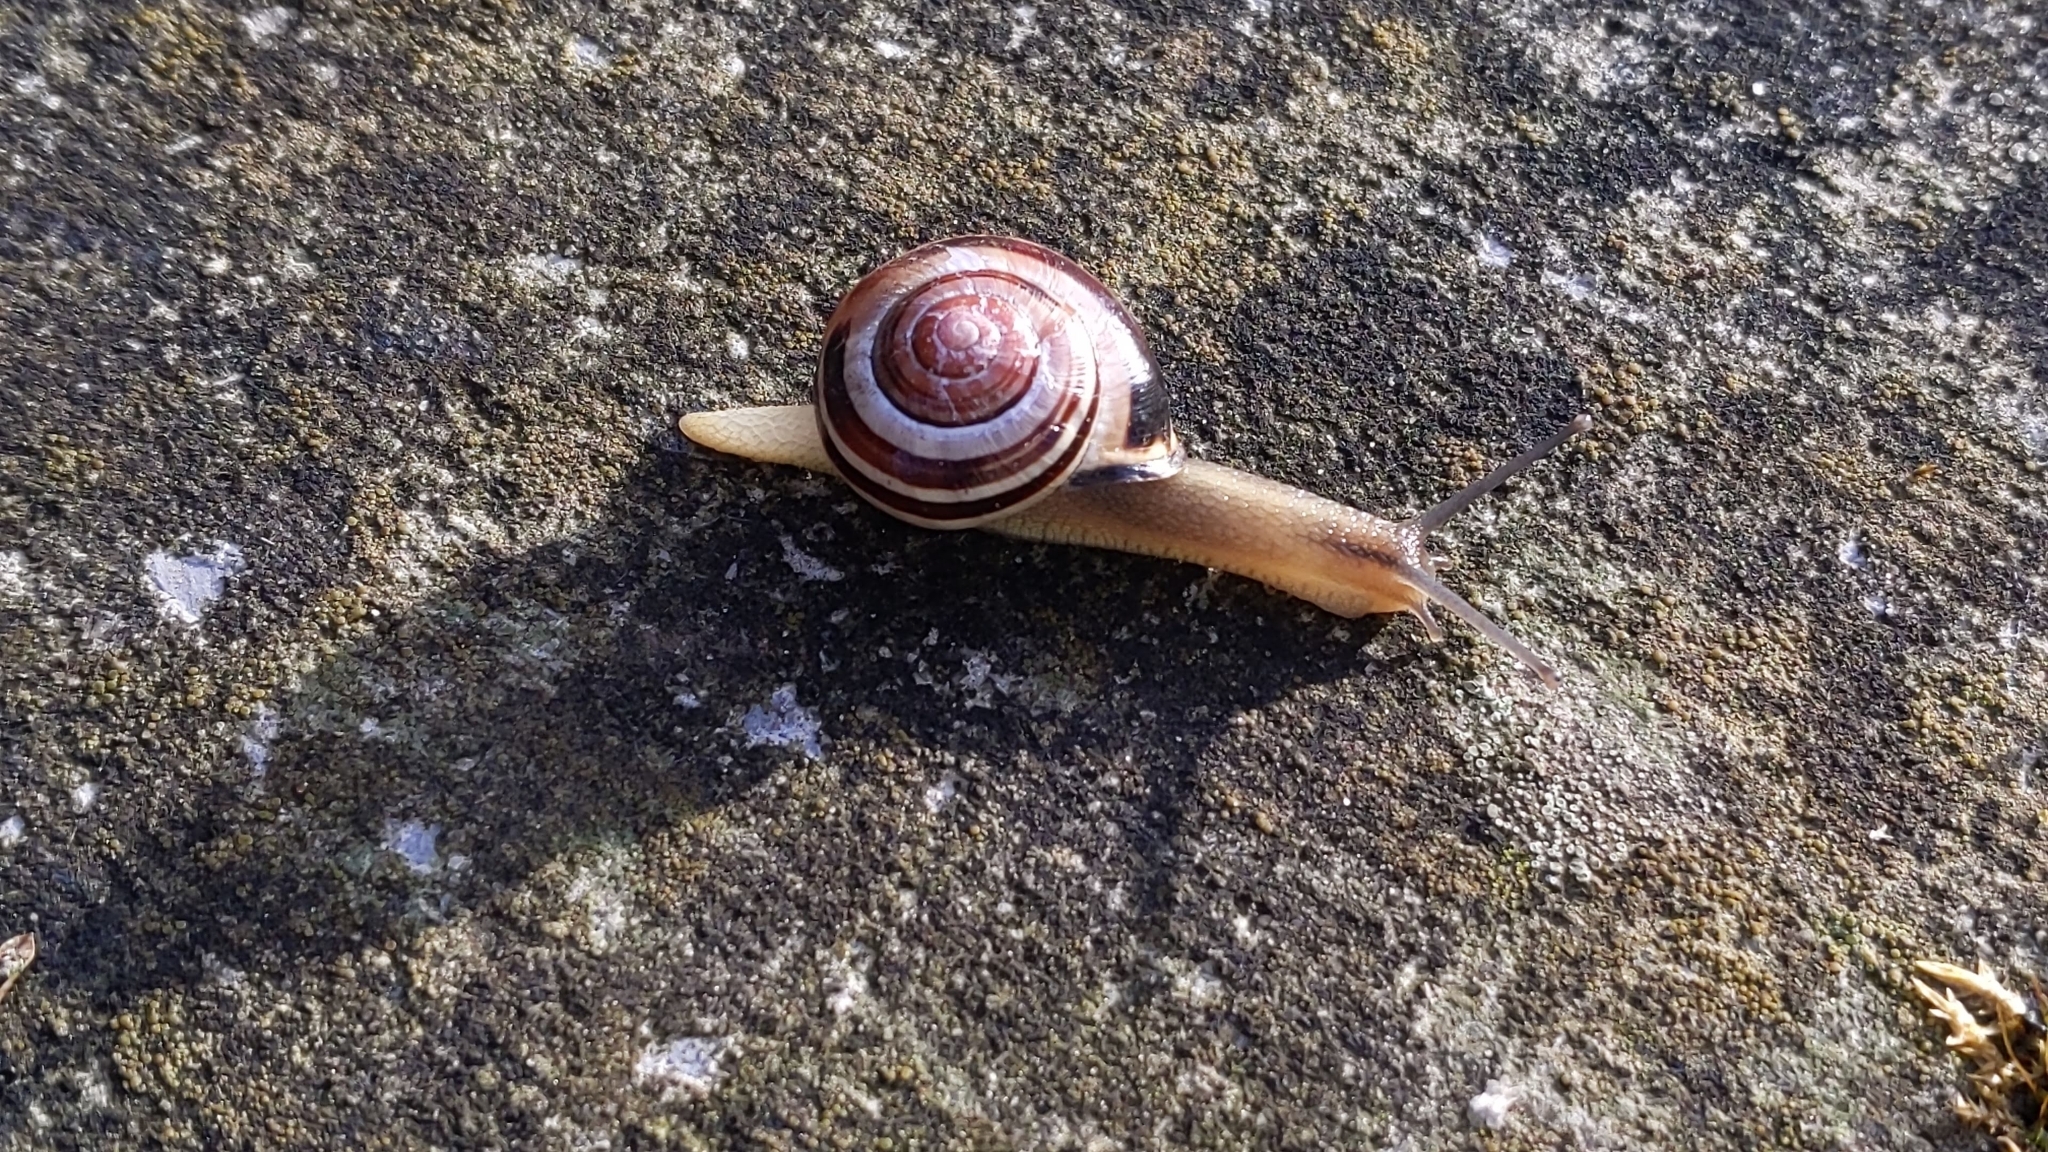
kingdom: Animalia
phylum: Mollusca
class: Gastropoda
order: Stylommatophora
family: Helicidae
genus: Cepaea
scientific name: Cepaea nemoralis
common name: Grovesnail
